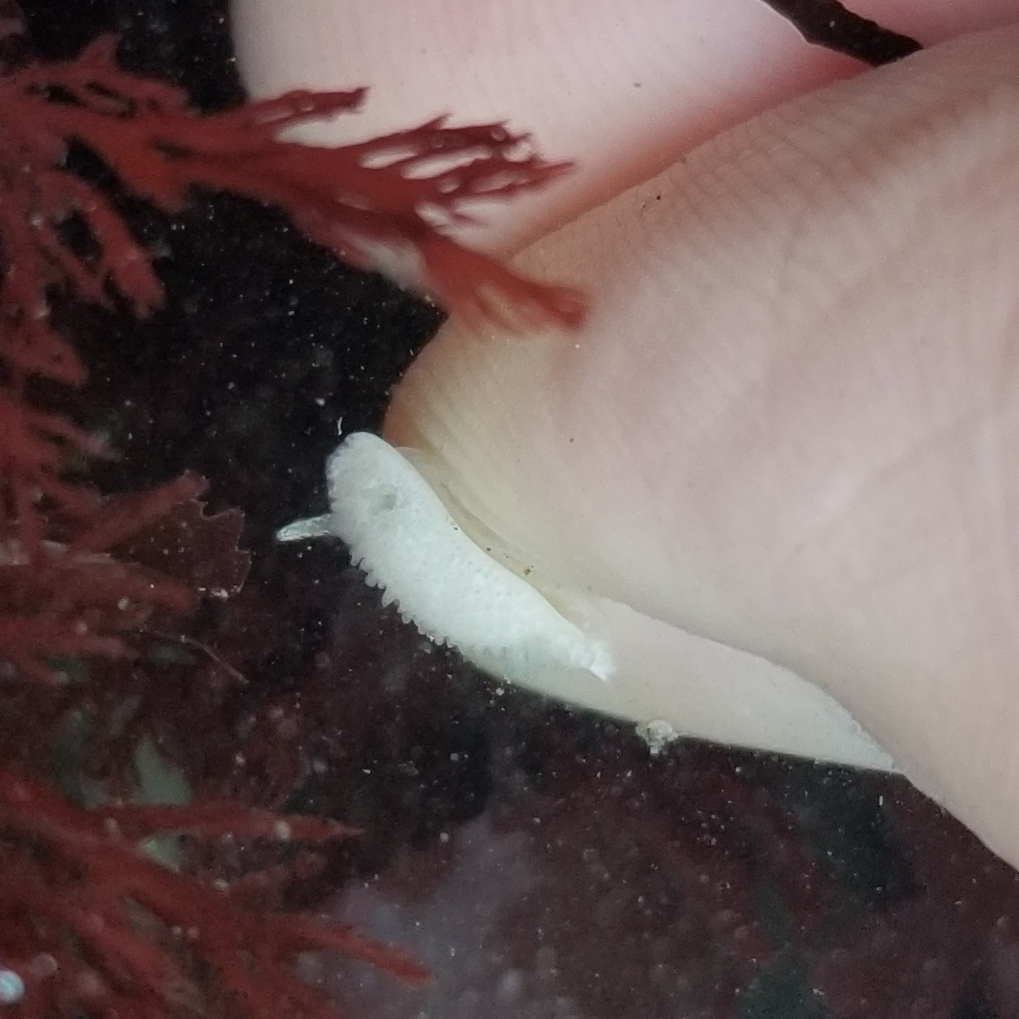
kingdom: Animalia
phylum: Mollusca
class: Gastropoda
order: Nudibranchia
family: Calycidorididae
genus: Diaphorodoris
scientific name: Diaphorodoris lirulatocauda
